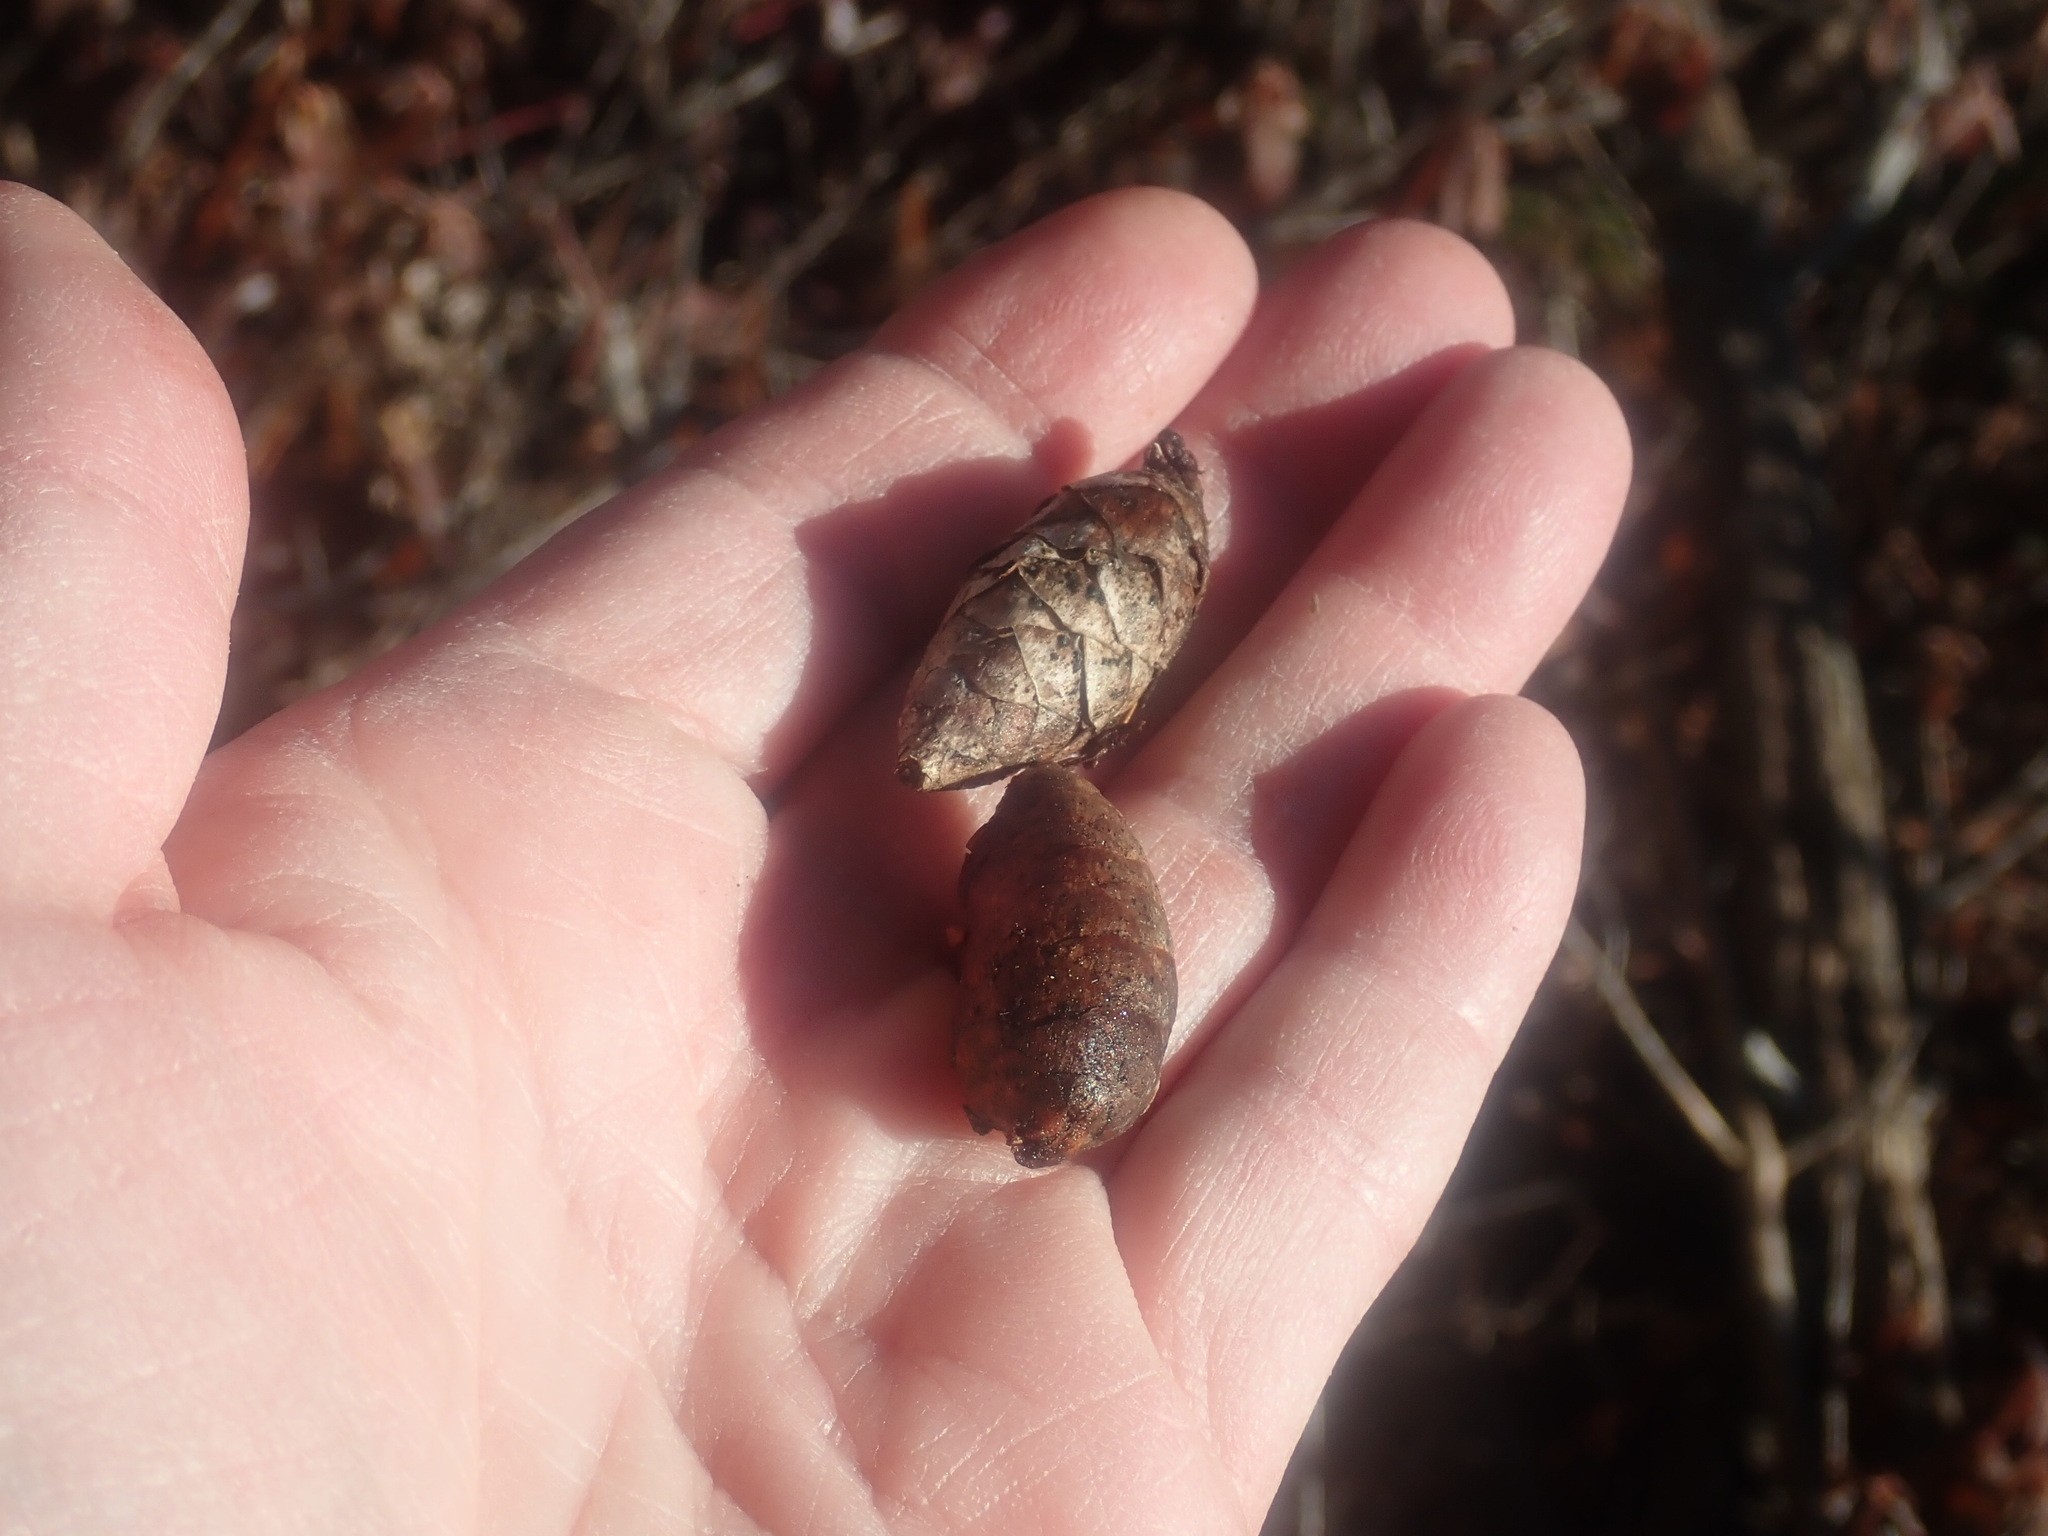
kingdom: Plantae
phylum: Tracheophyta
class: Pinopsida
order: Pinales
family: Pinaceae
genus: Picea
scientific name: Picea rubens
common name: Red spruce
